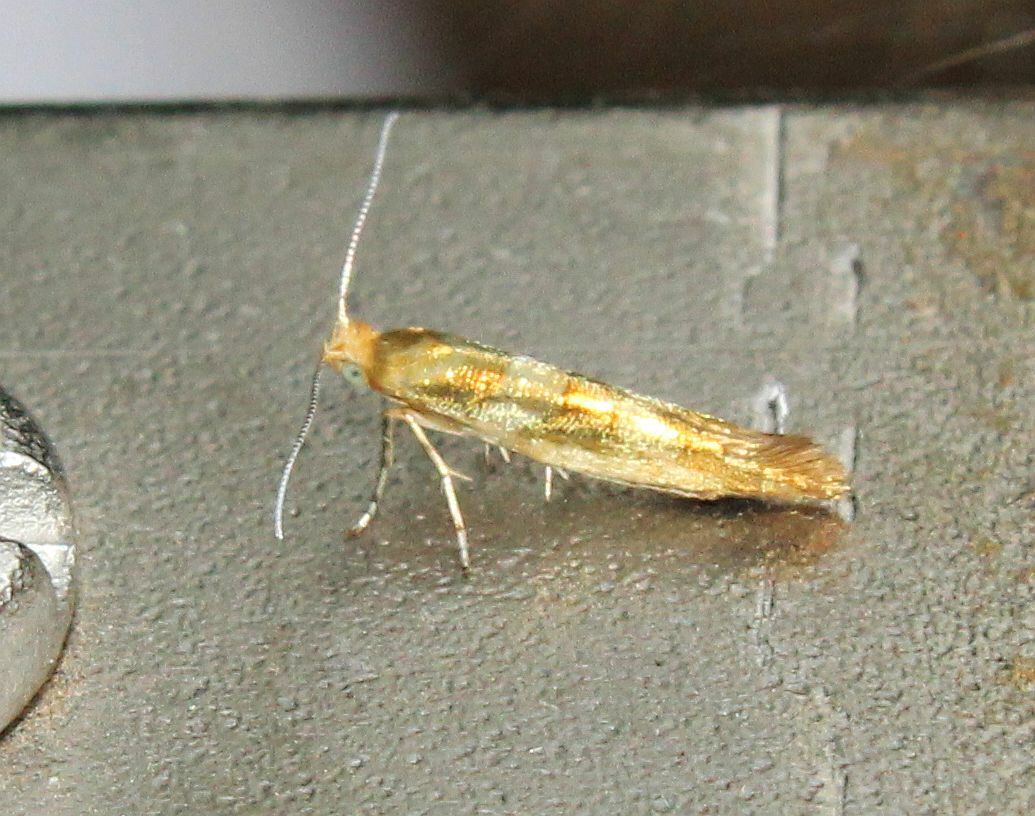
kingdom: Animalia
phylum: Arthropoda
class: Insecta
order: Lepidoptera
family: Argyresthiidae
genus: Argyresthia
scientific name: Argyresthia goedartella
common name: Golden argent
